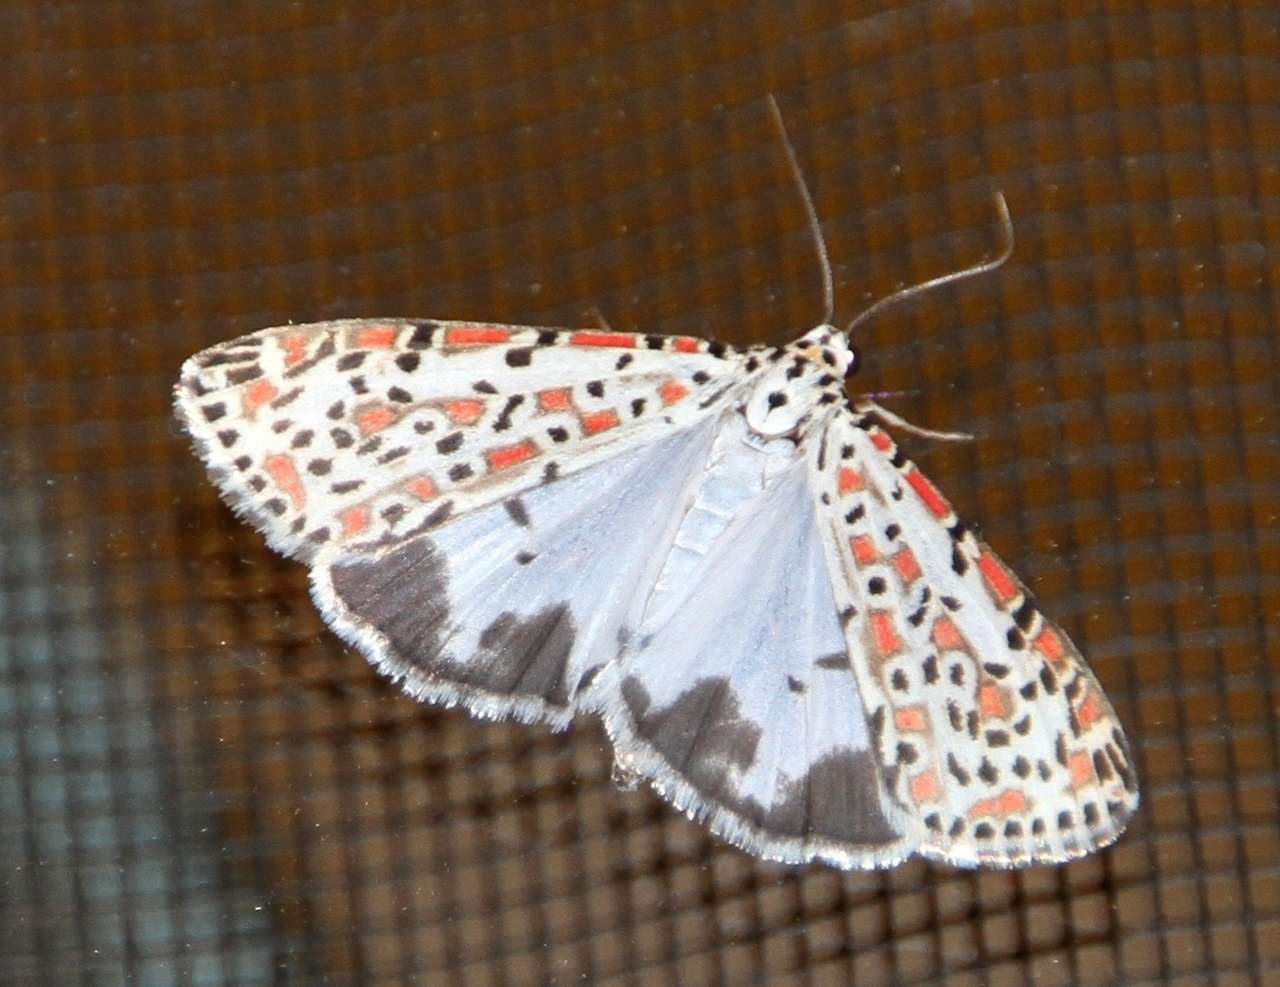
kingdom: Animalia
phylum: Arthropoda
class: Insecta
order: Lepidoptera
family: Erebidae
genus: Utetheisa
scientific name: Utetheisa pulchelloides
